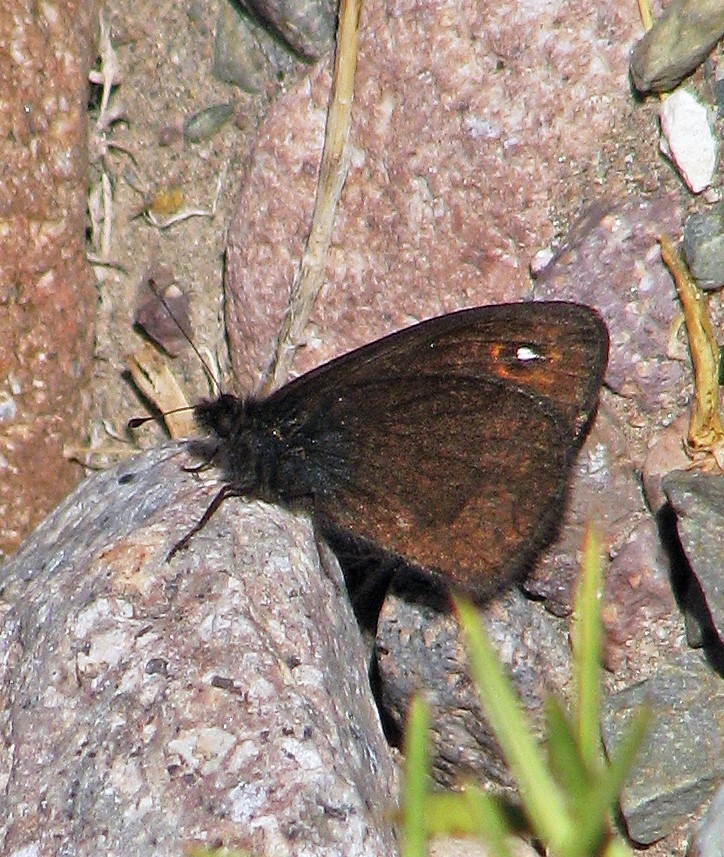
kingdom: Animalia
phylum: Arthropoda
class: Insecta
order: Lepidoptera
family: Nymphalidae
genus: Faunula
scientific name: Faunula leucoglene
